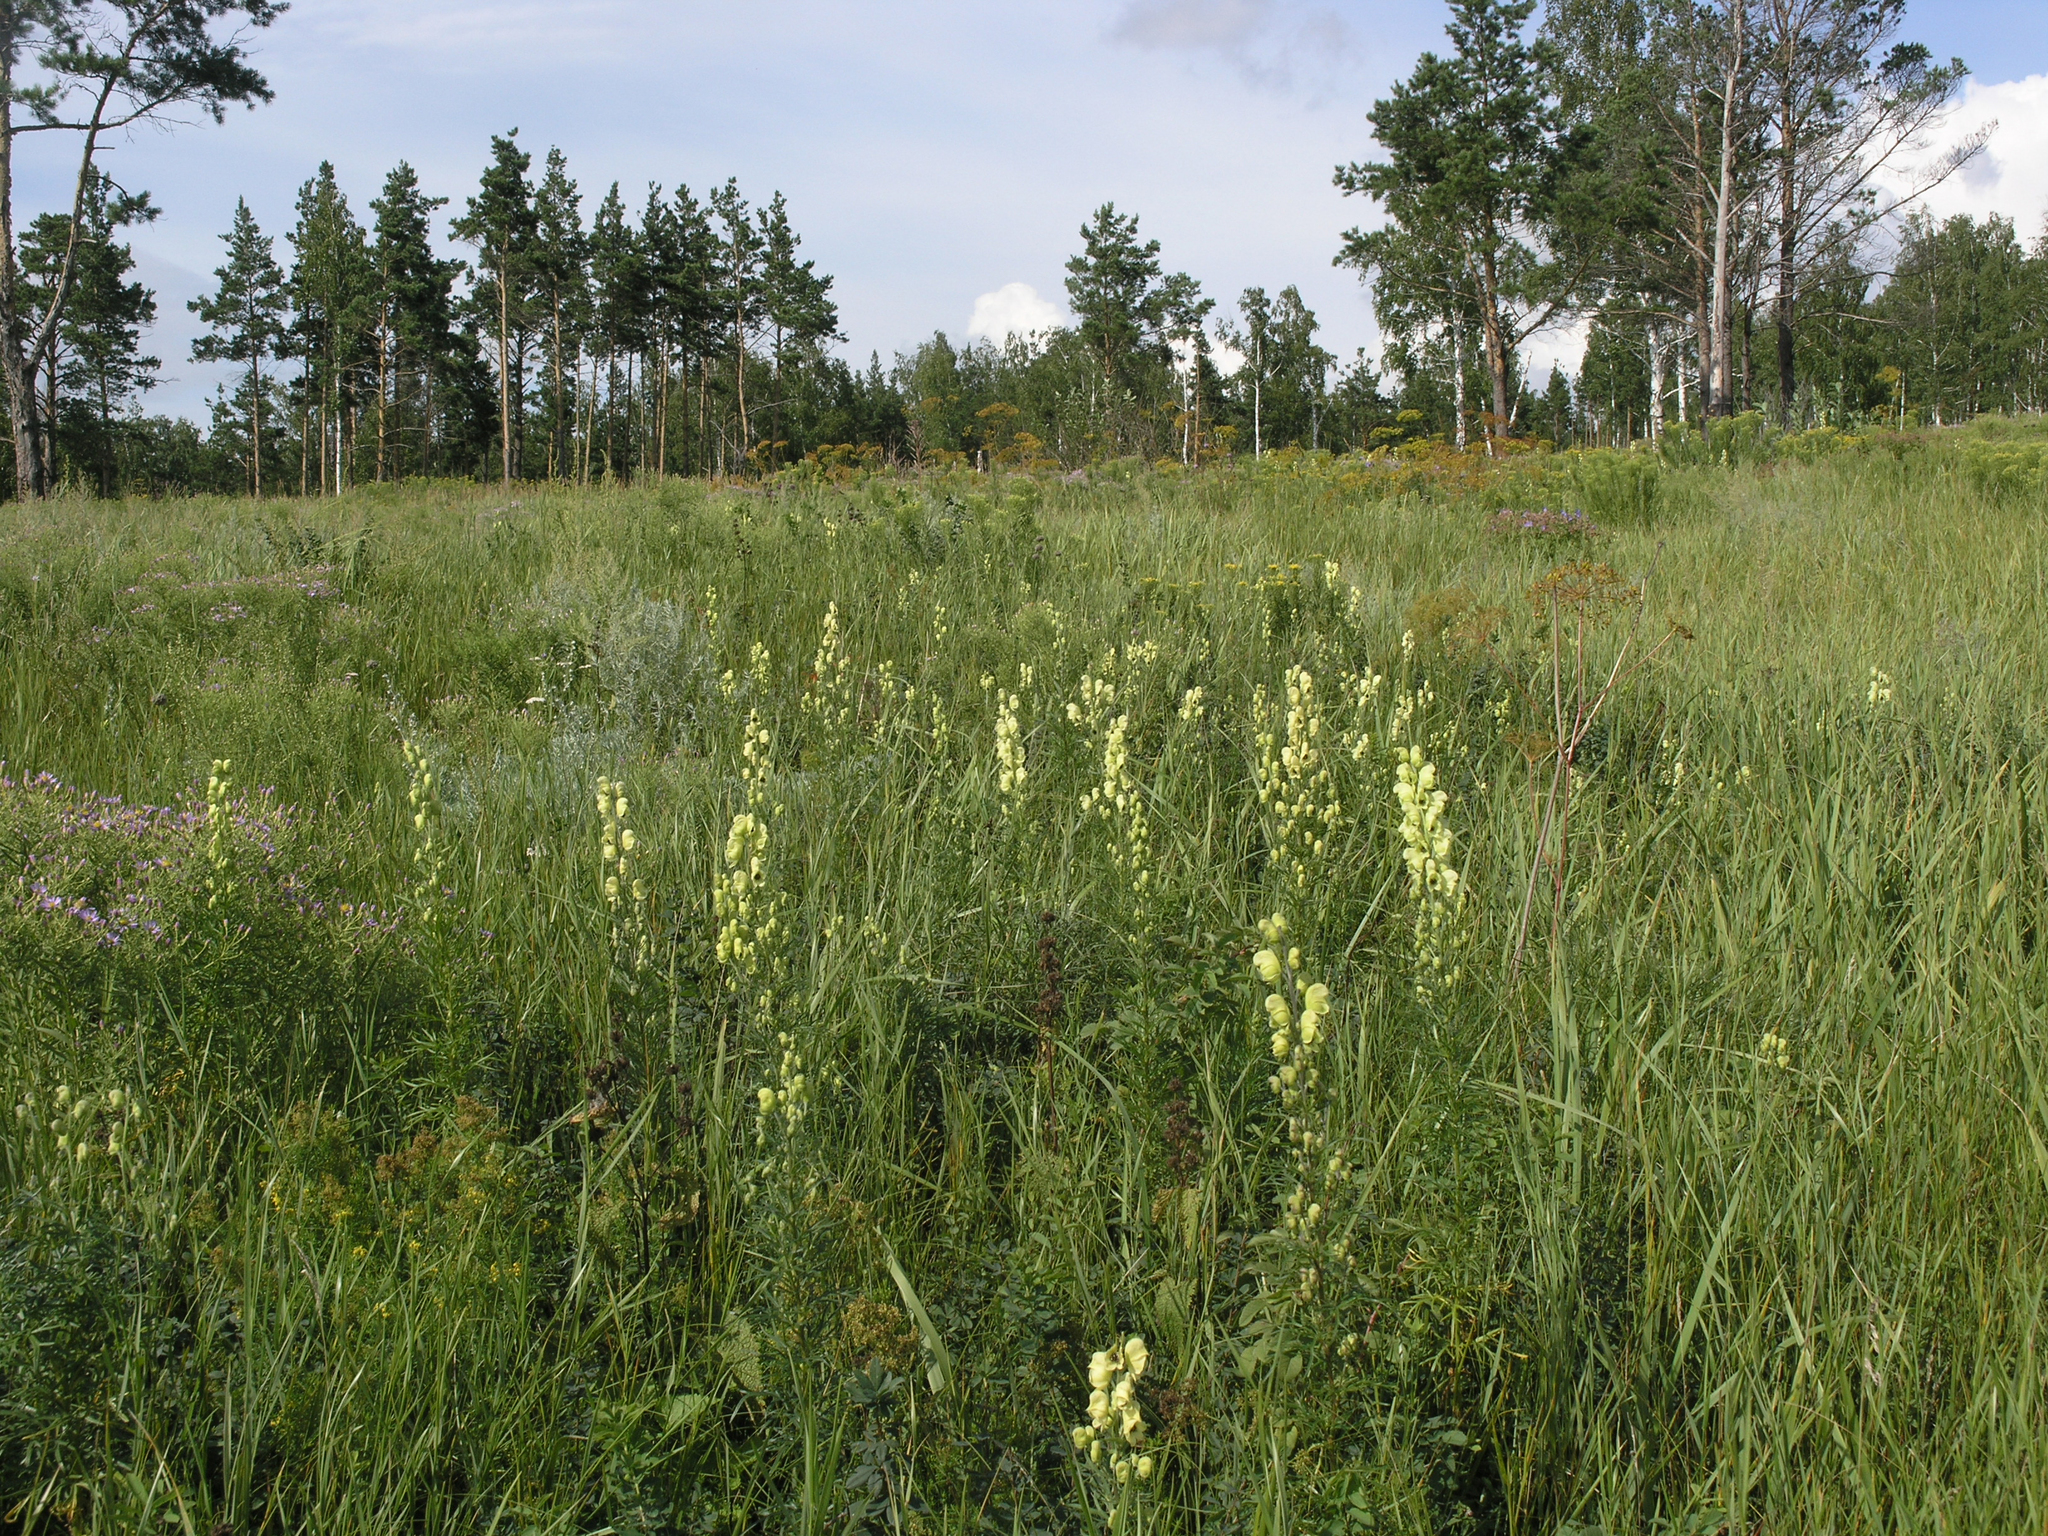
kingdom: Plantae
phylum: Tracheophyta
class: Pinopsida
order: Pinales
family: Pinaceae
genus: Pinus
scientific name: Pinus sylvestris
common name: Scots pine
